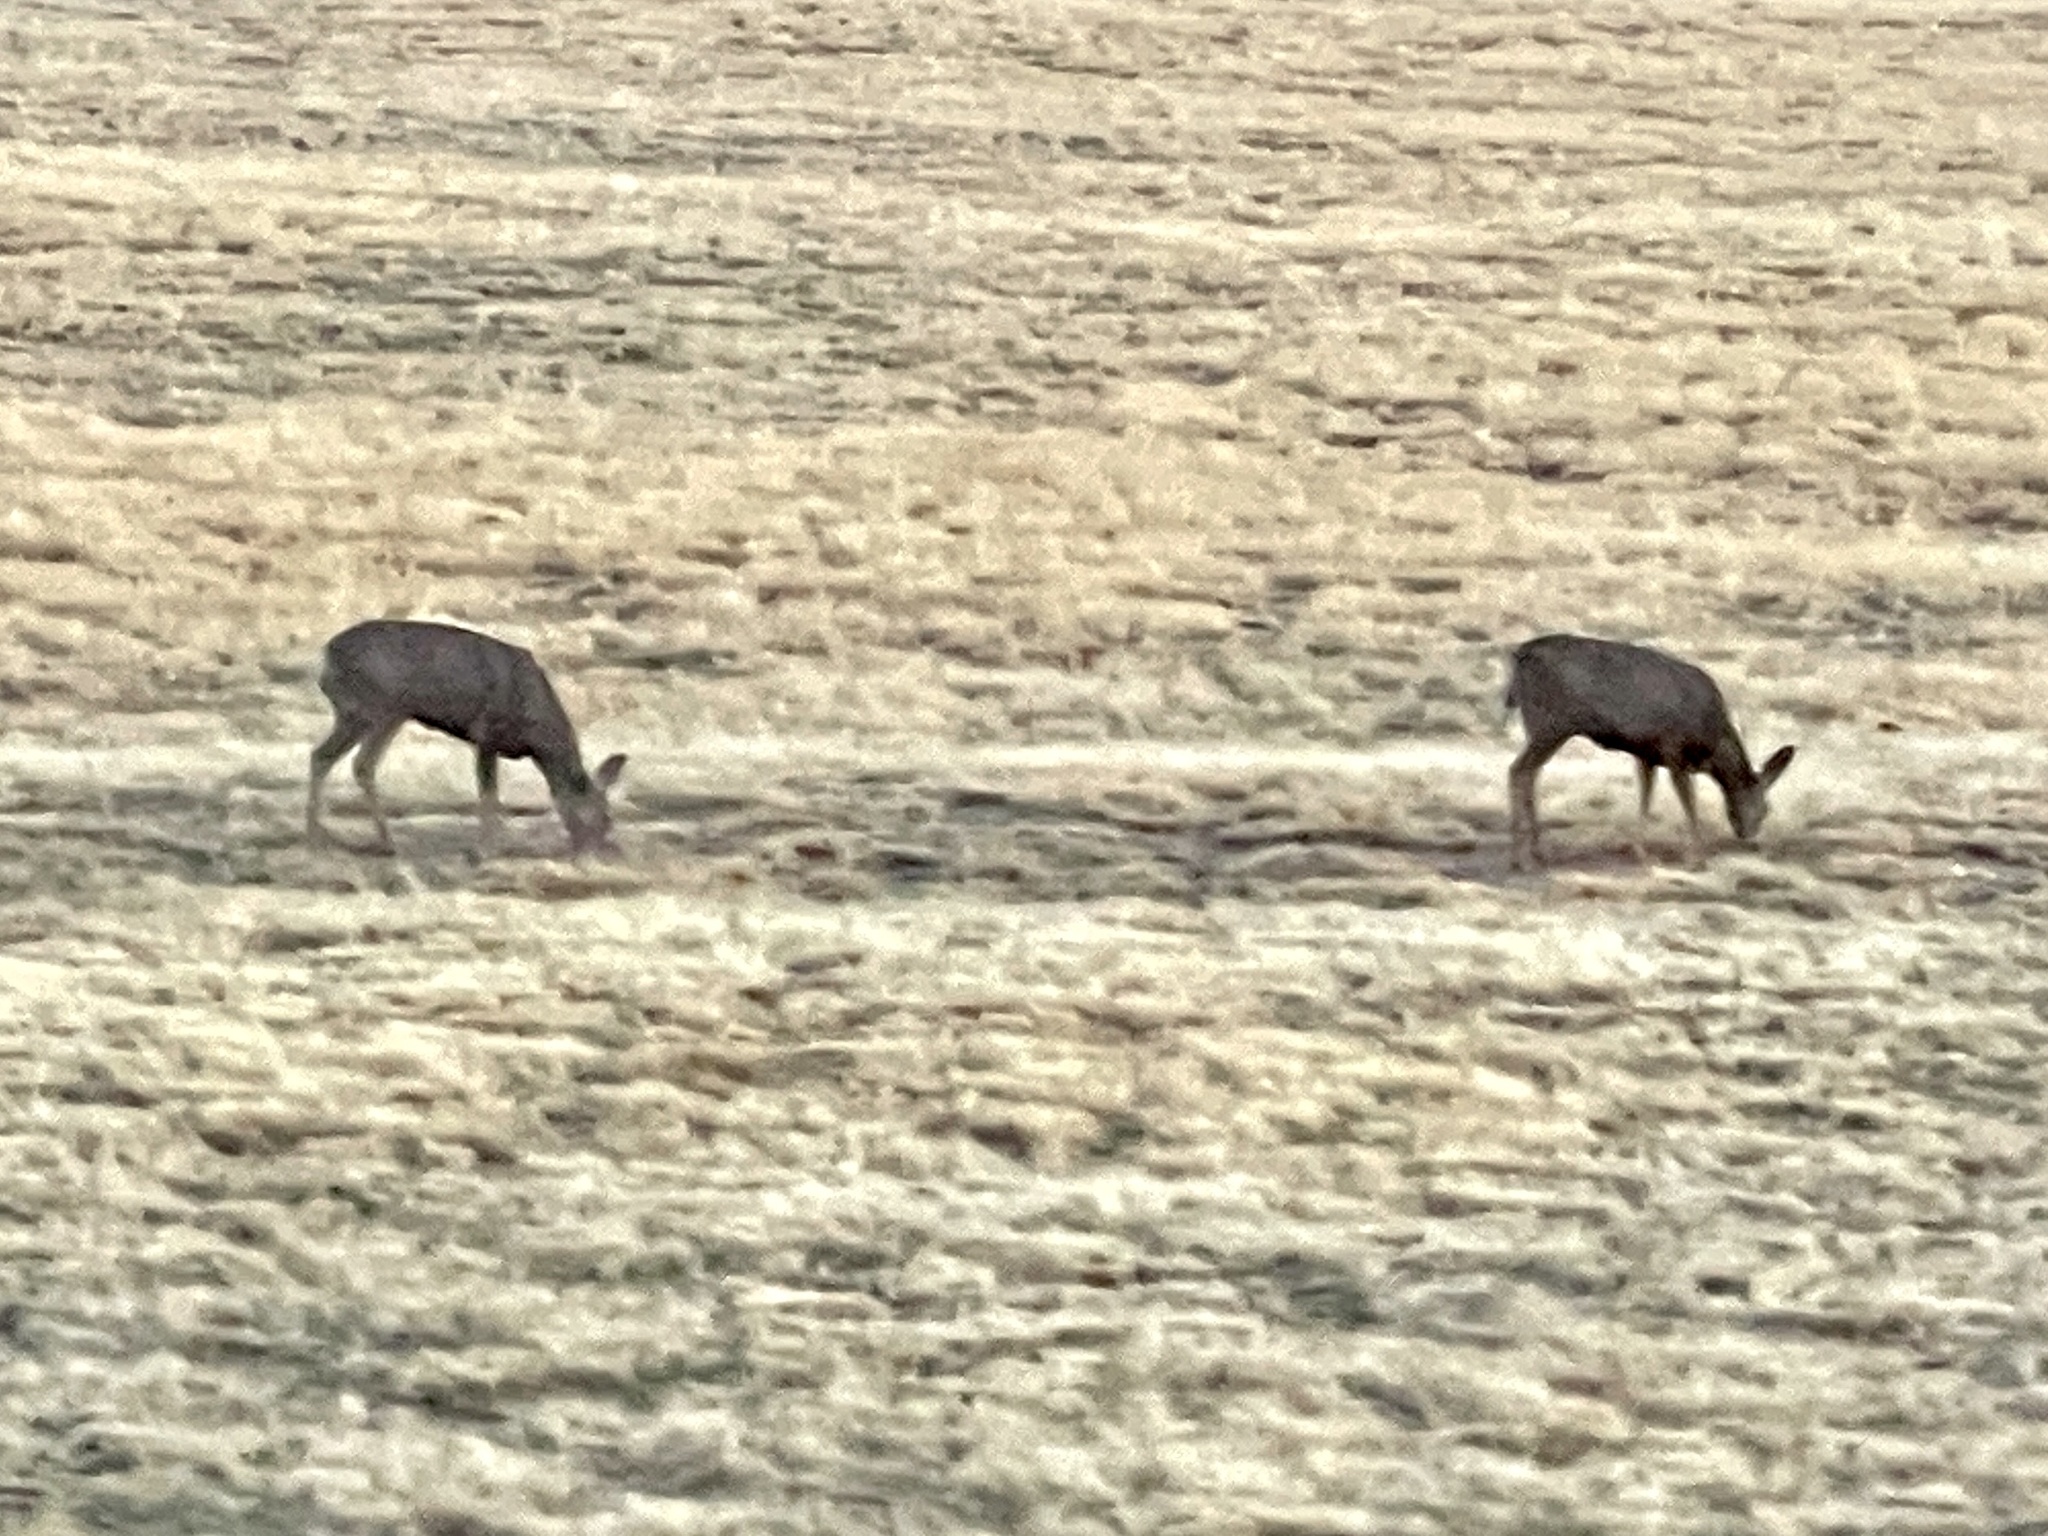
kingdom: Animalia
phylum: Chordata
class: Mammalia
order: Artiodactyla
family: Cervidae
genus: Odocoileus
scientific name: Odocoileus hemionus
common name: Mule deer
